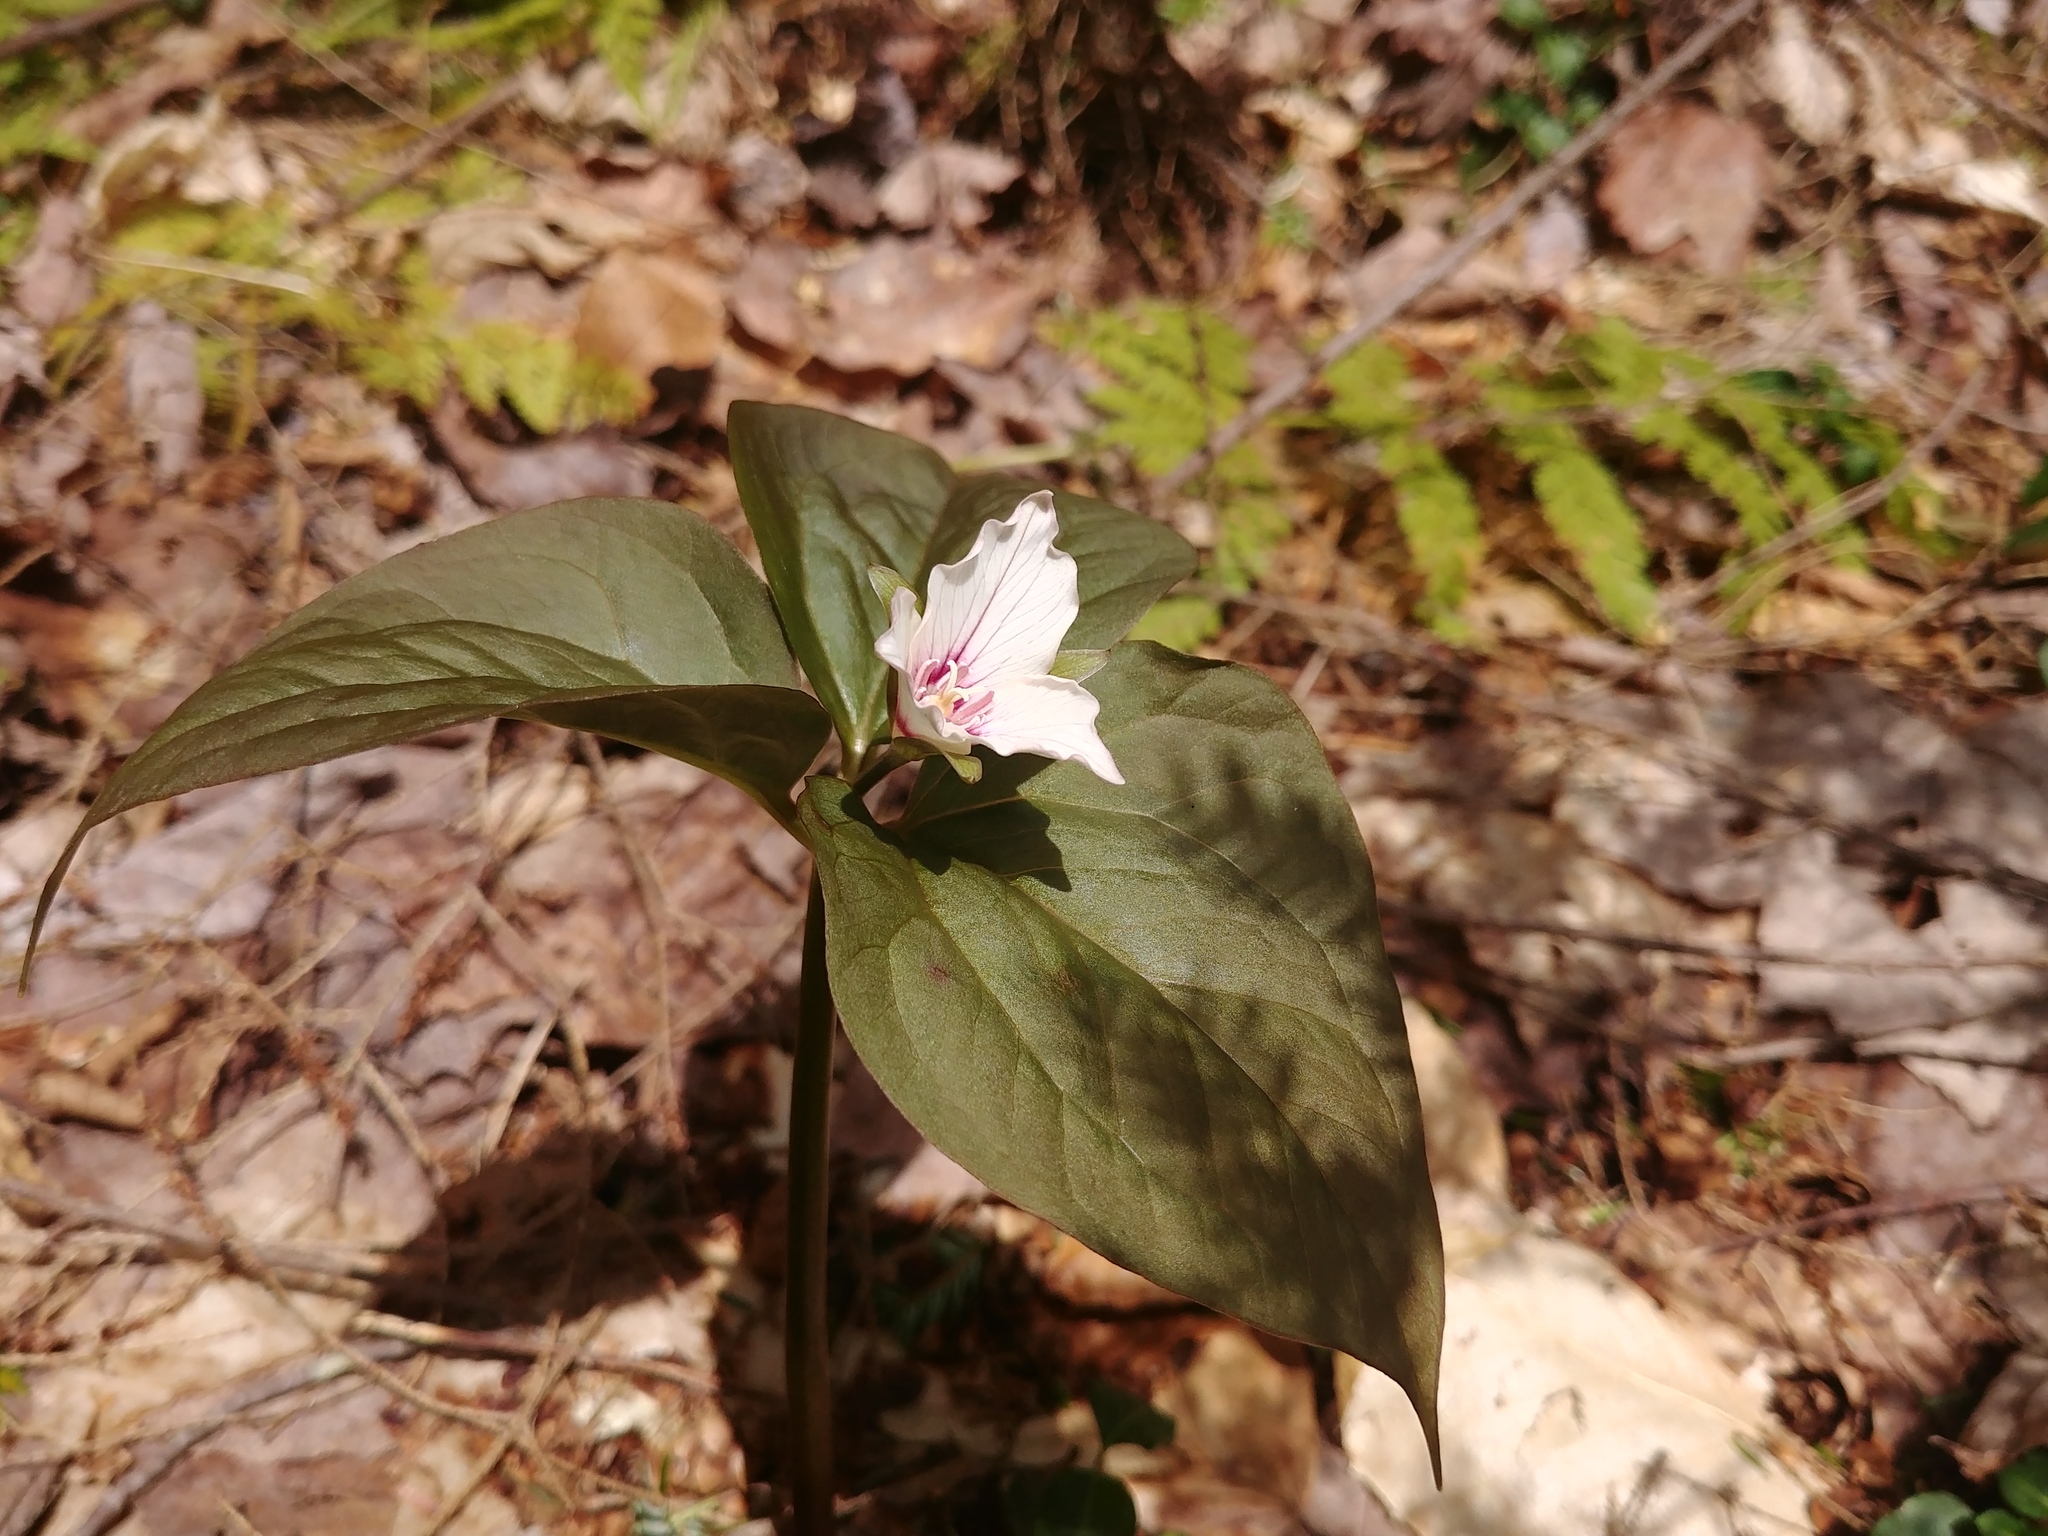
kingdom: Plantae
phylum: Tracheophyta
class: Liliopsida
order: Liliales
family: Melanthiaceae
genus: Trillium
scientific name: Trillium undulatum
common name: Paint trillium
